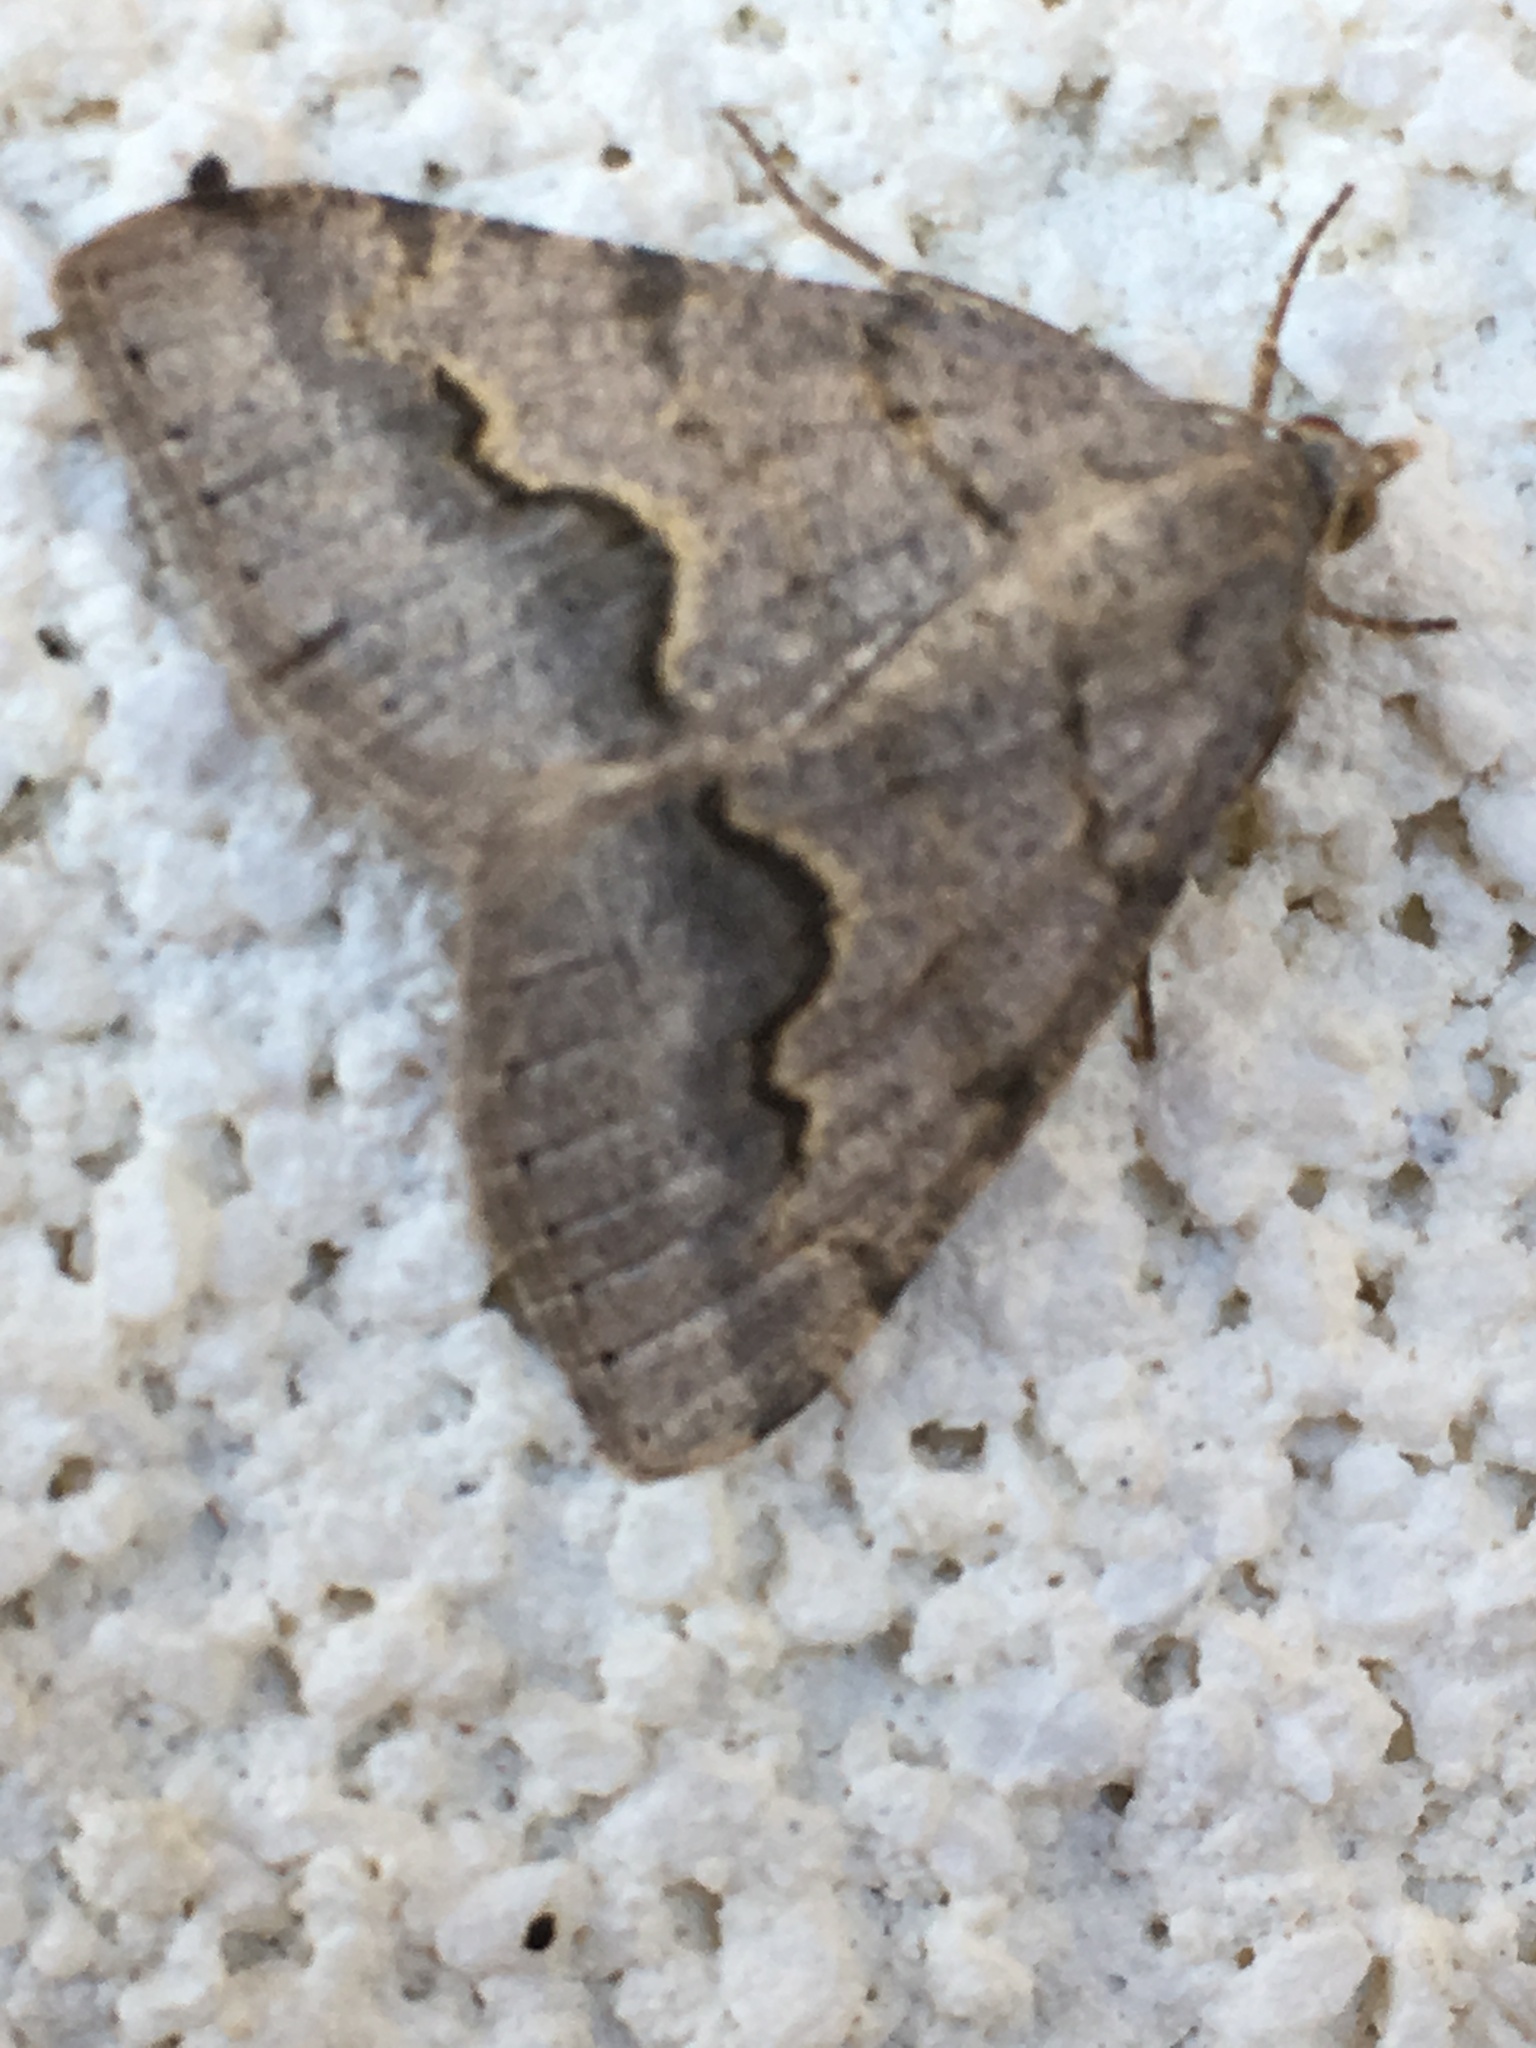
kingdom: Animalia
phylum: Arthropoda
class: Insecta
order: Lepidoptera
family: Geometridae
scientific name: Geometridae
